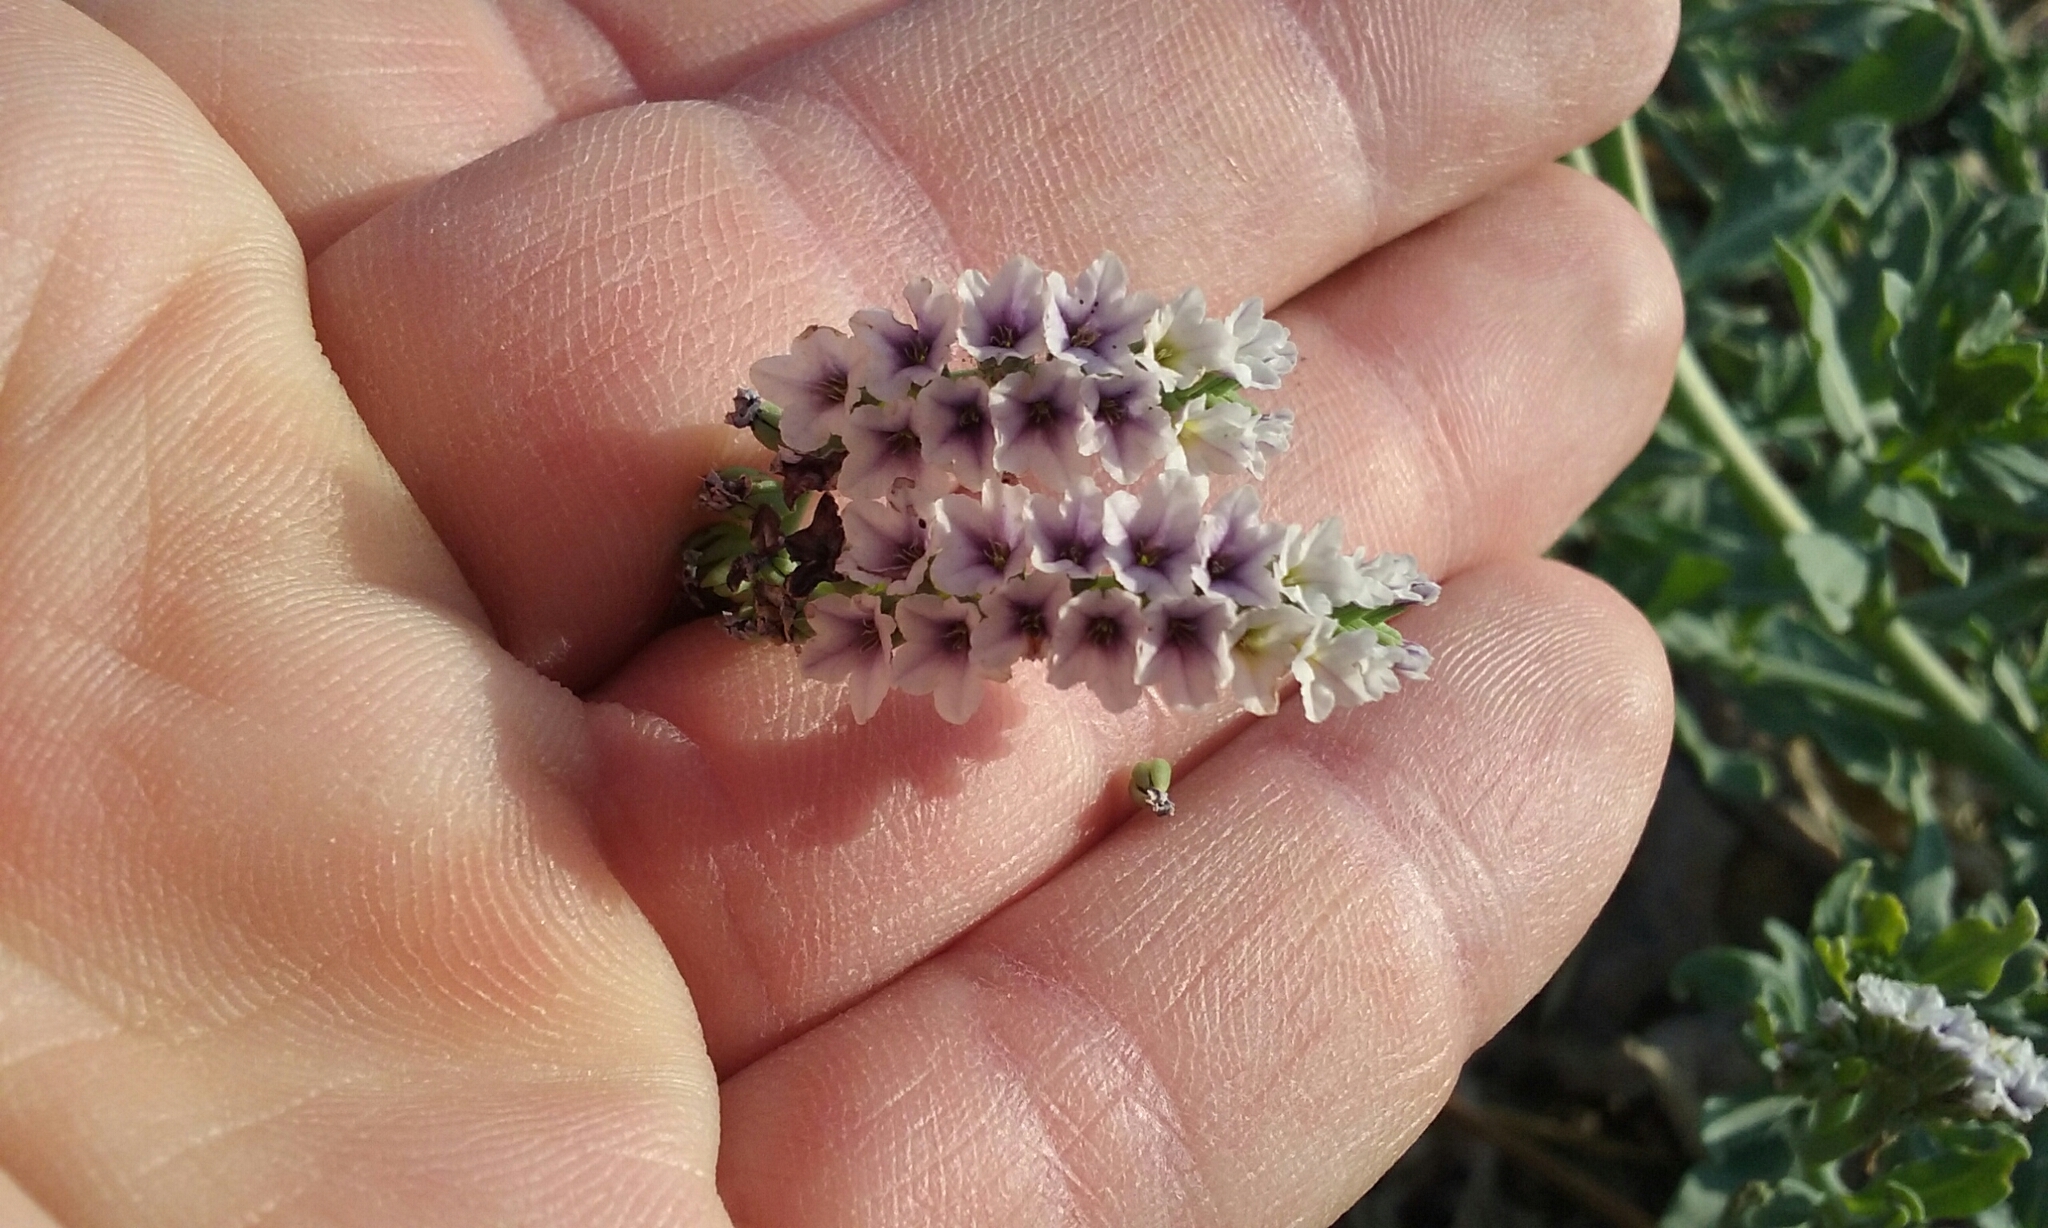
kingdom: Plantae
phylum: Tracheophyta
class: Magnoliopsida
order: Boraginales
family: Heliotropiaceae
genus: Heliotropium
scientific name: Heliotropium curassavicum
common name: Seaside heliotrope
